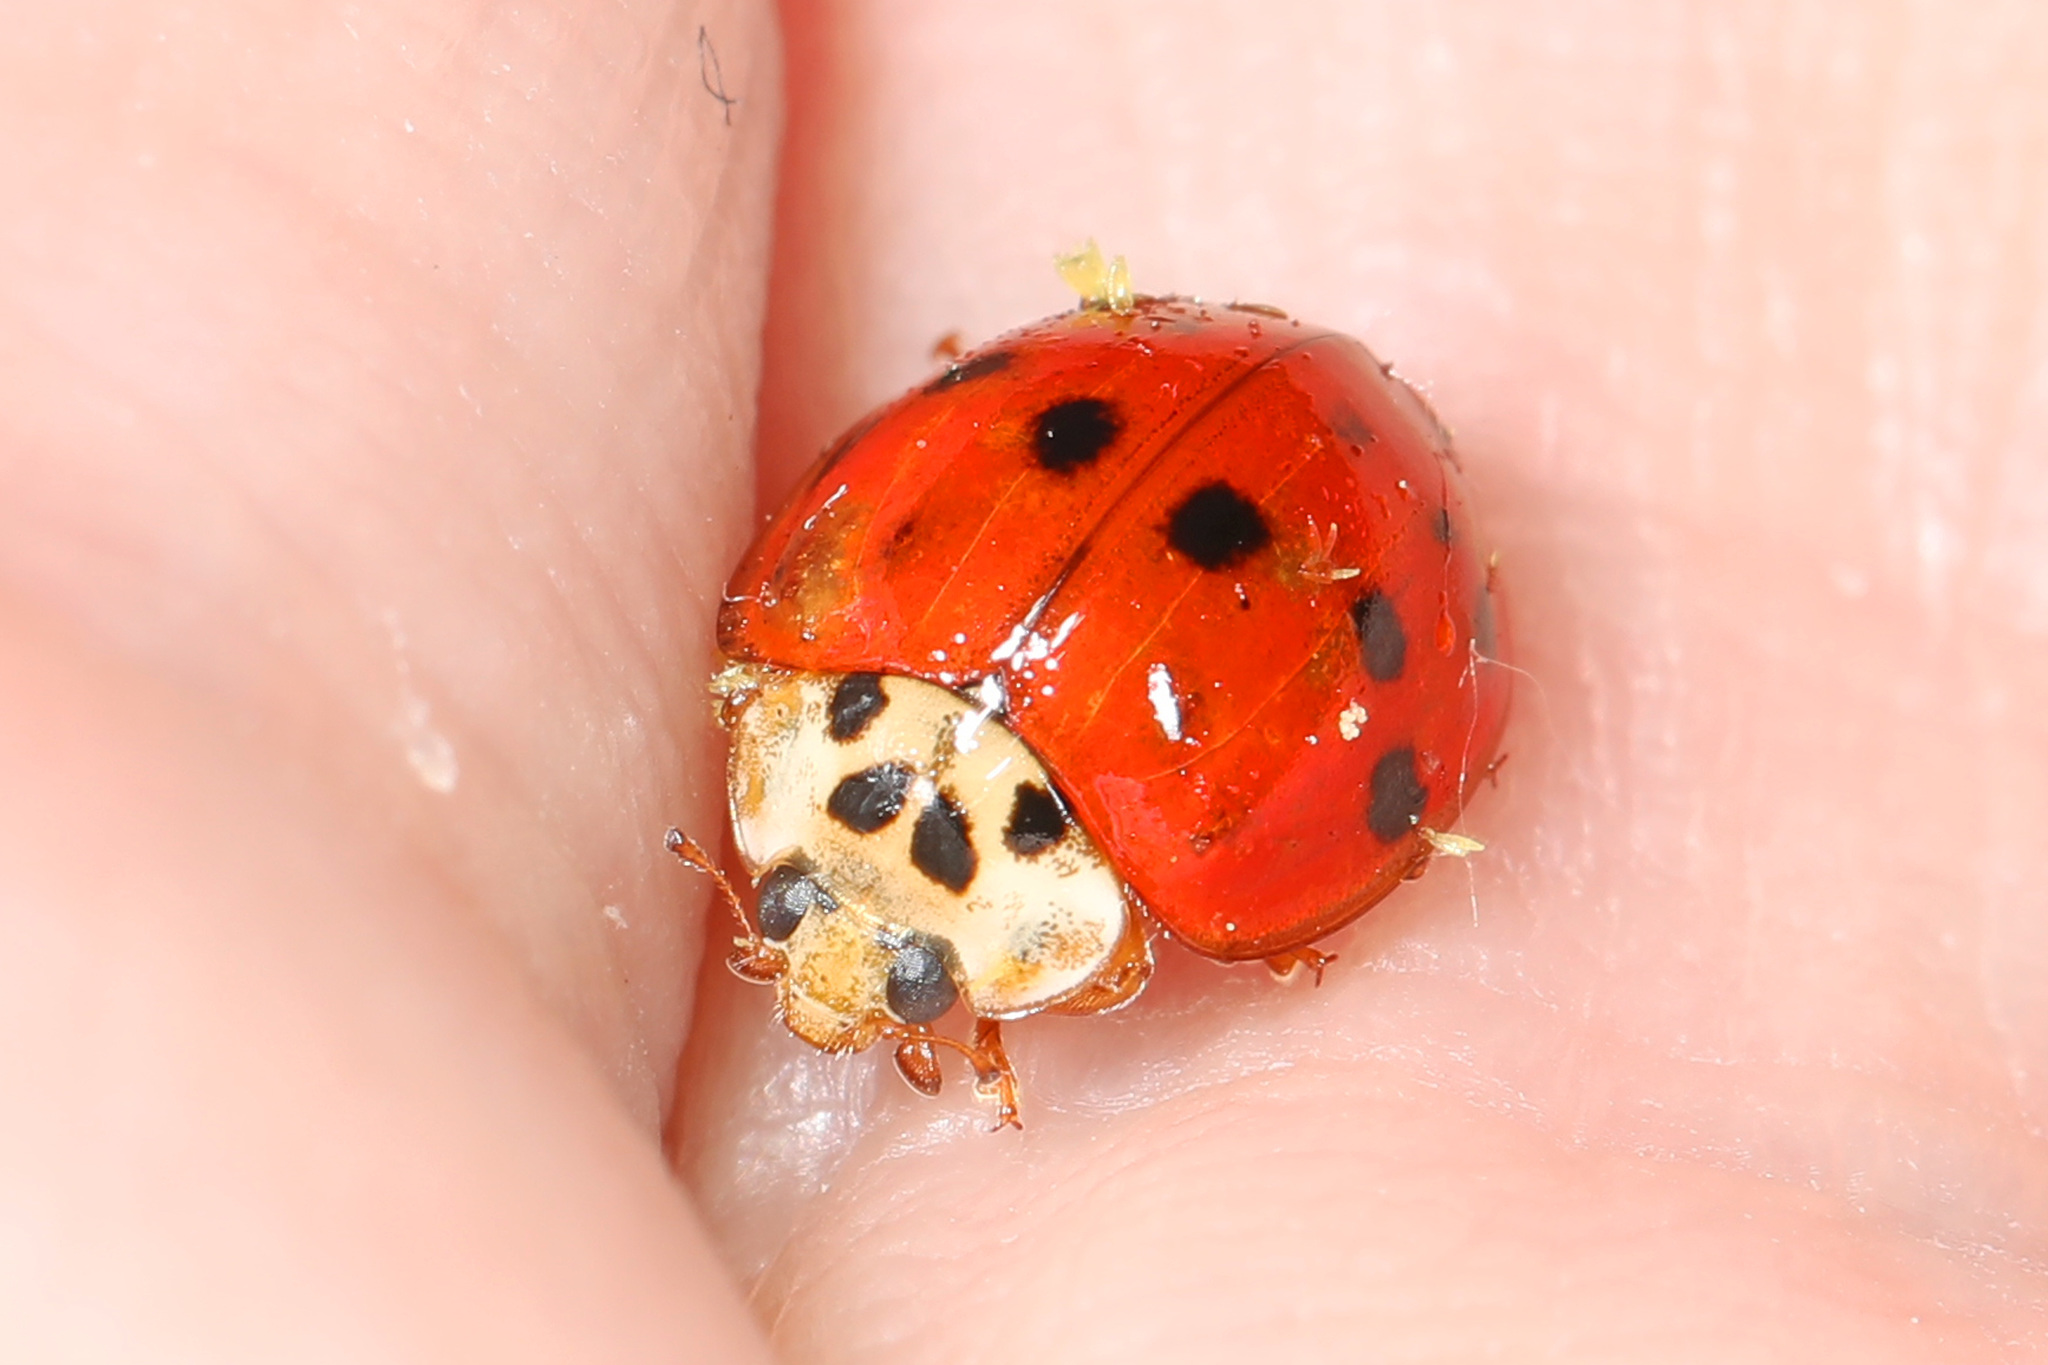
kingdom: Animalia
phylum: Arthropoda
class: Insecta
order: Coleoptera
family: Coccinellidae
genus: Harmonia
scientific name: Harmonia axyridis
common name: Harlequin ladybird
